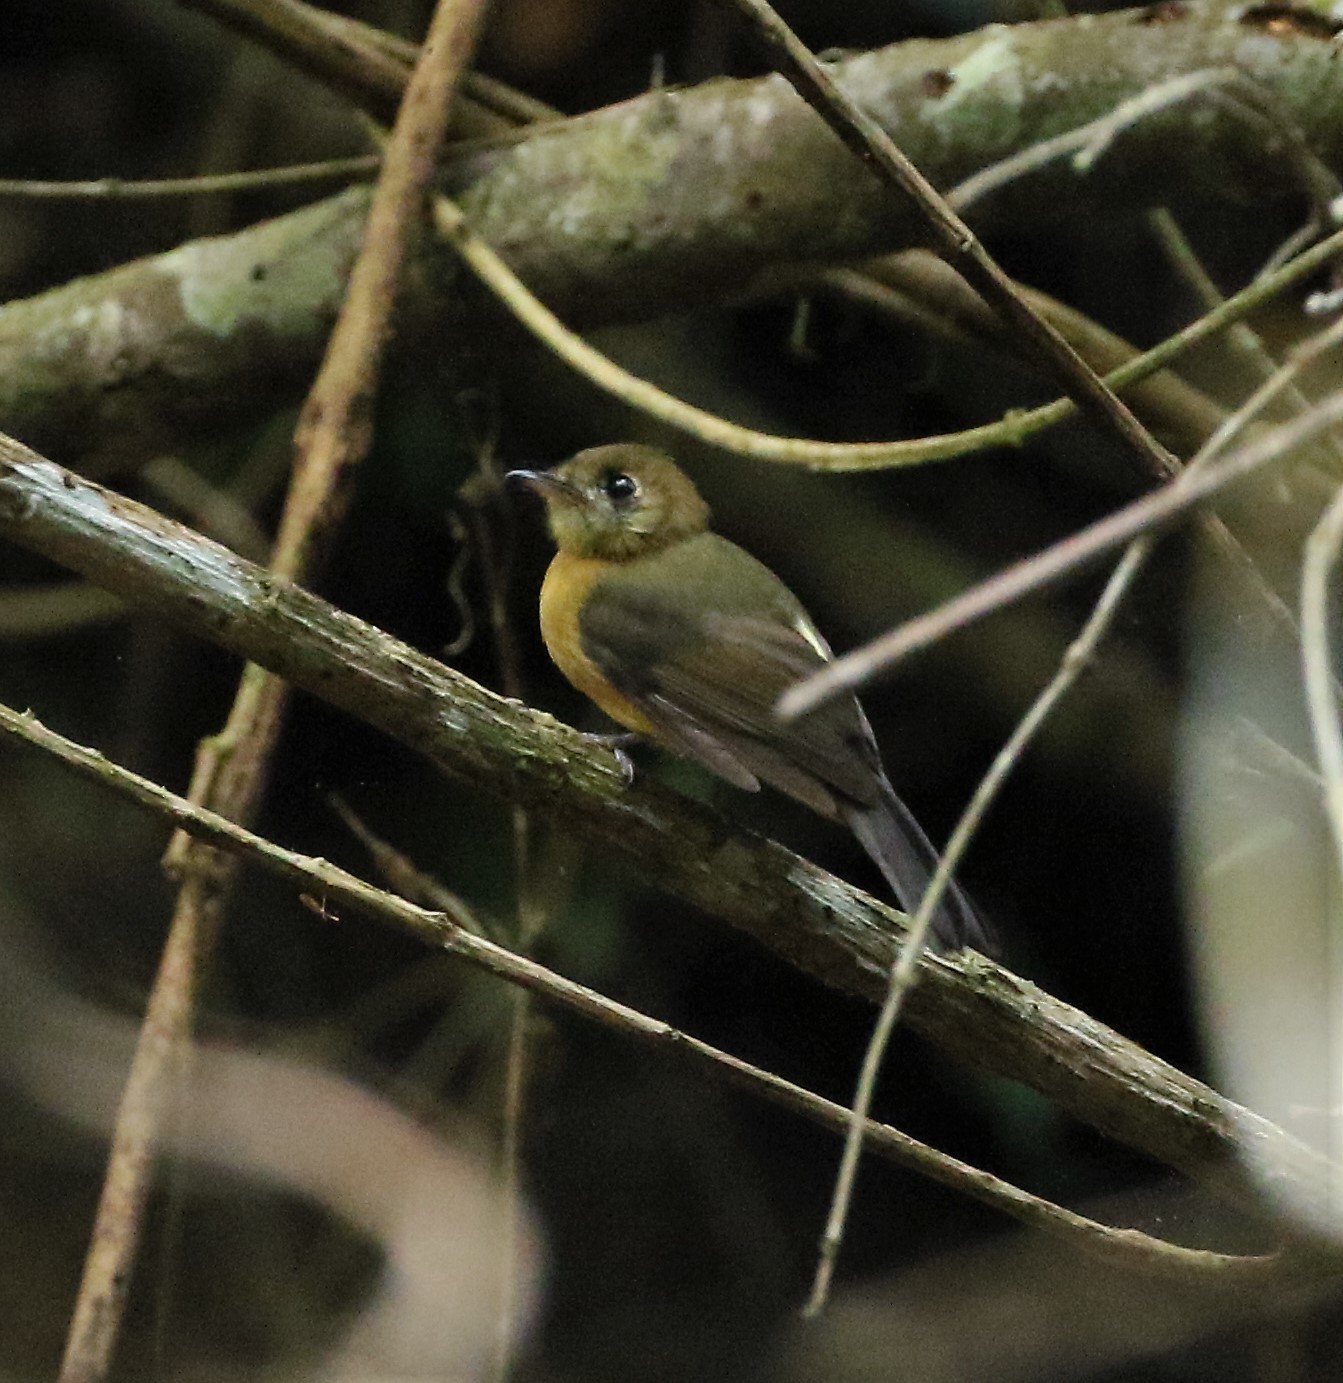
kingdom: Animalia
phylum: Chordata
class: Aves
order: Passeriformes
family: Tyrannidae
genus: Myiobius
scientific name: Myiobius barbatus
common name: Whiskered myiobius
